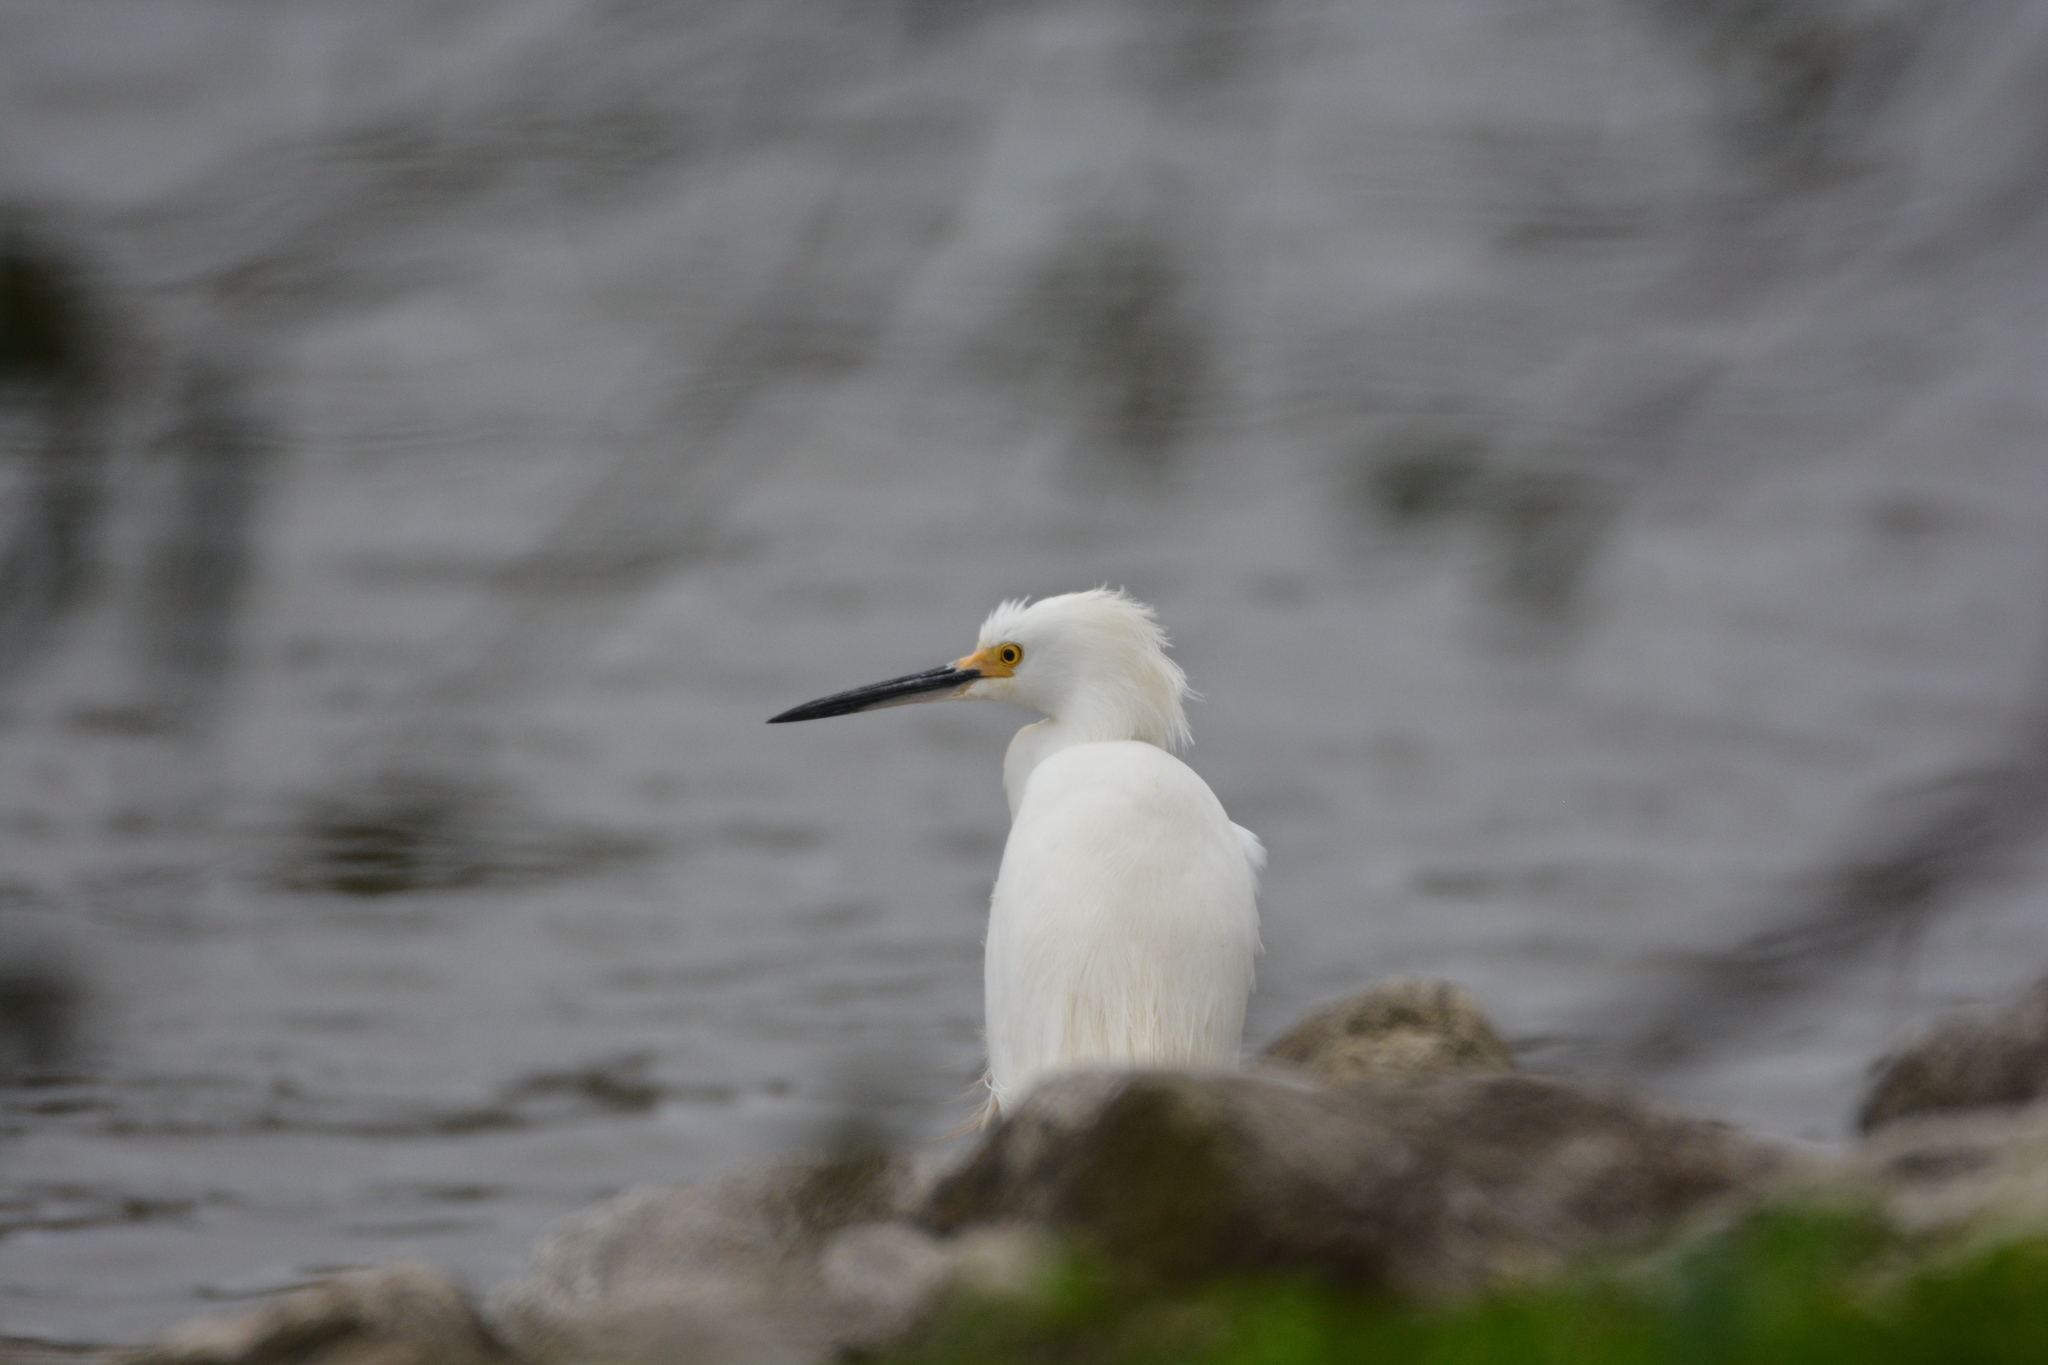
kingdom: Animalia
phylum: Chordata
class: Aves
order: Pelecaniformes
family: Ardeidae
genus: Egretta
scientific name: Egretta thula
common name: Snowy egret
